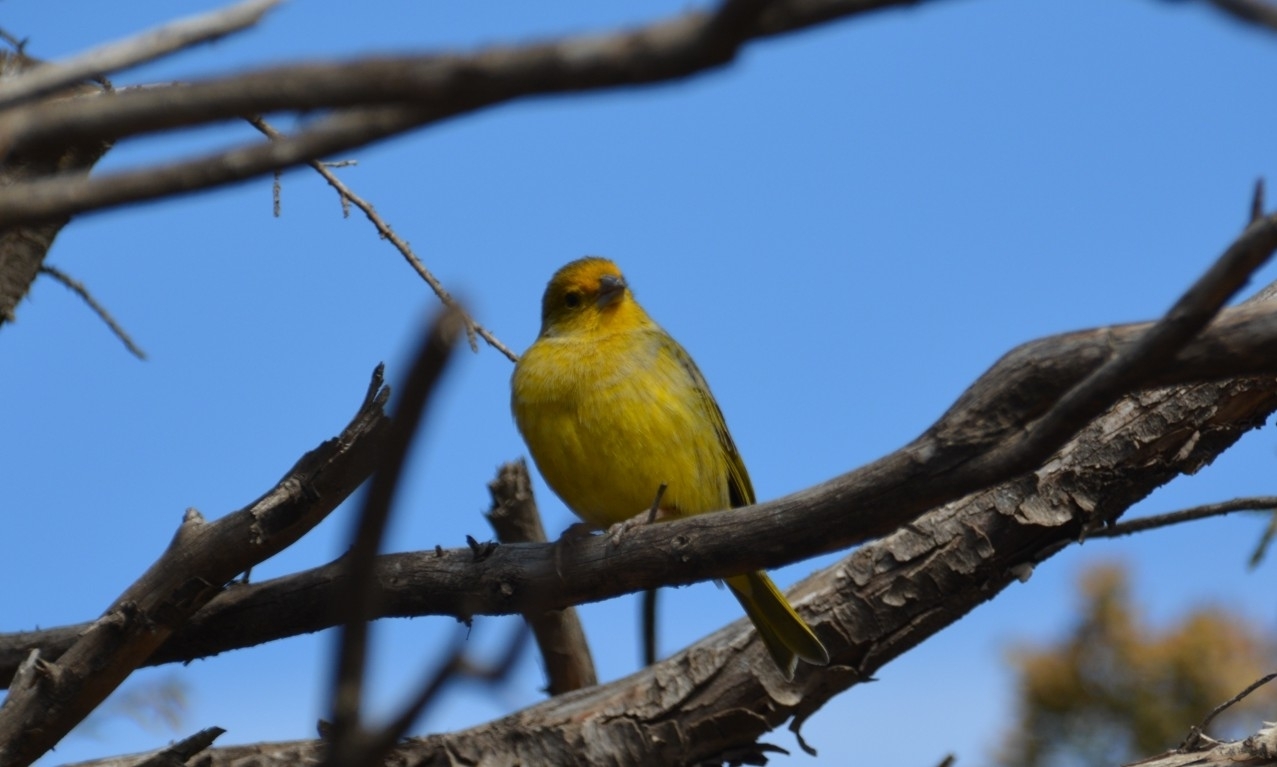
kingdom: Animalia
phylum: Chordata
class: Aves
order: Passeriformes
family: Thraupidae
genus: Sicalis
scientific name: Sicalis flaveola
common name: Saffron finch
